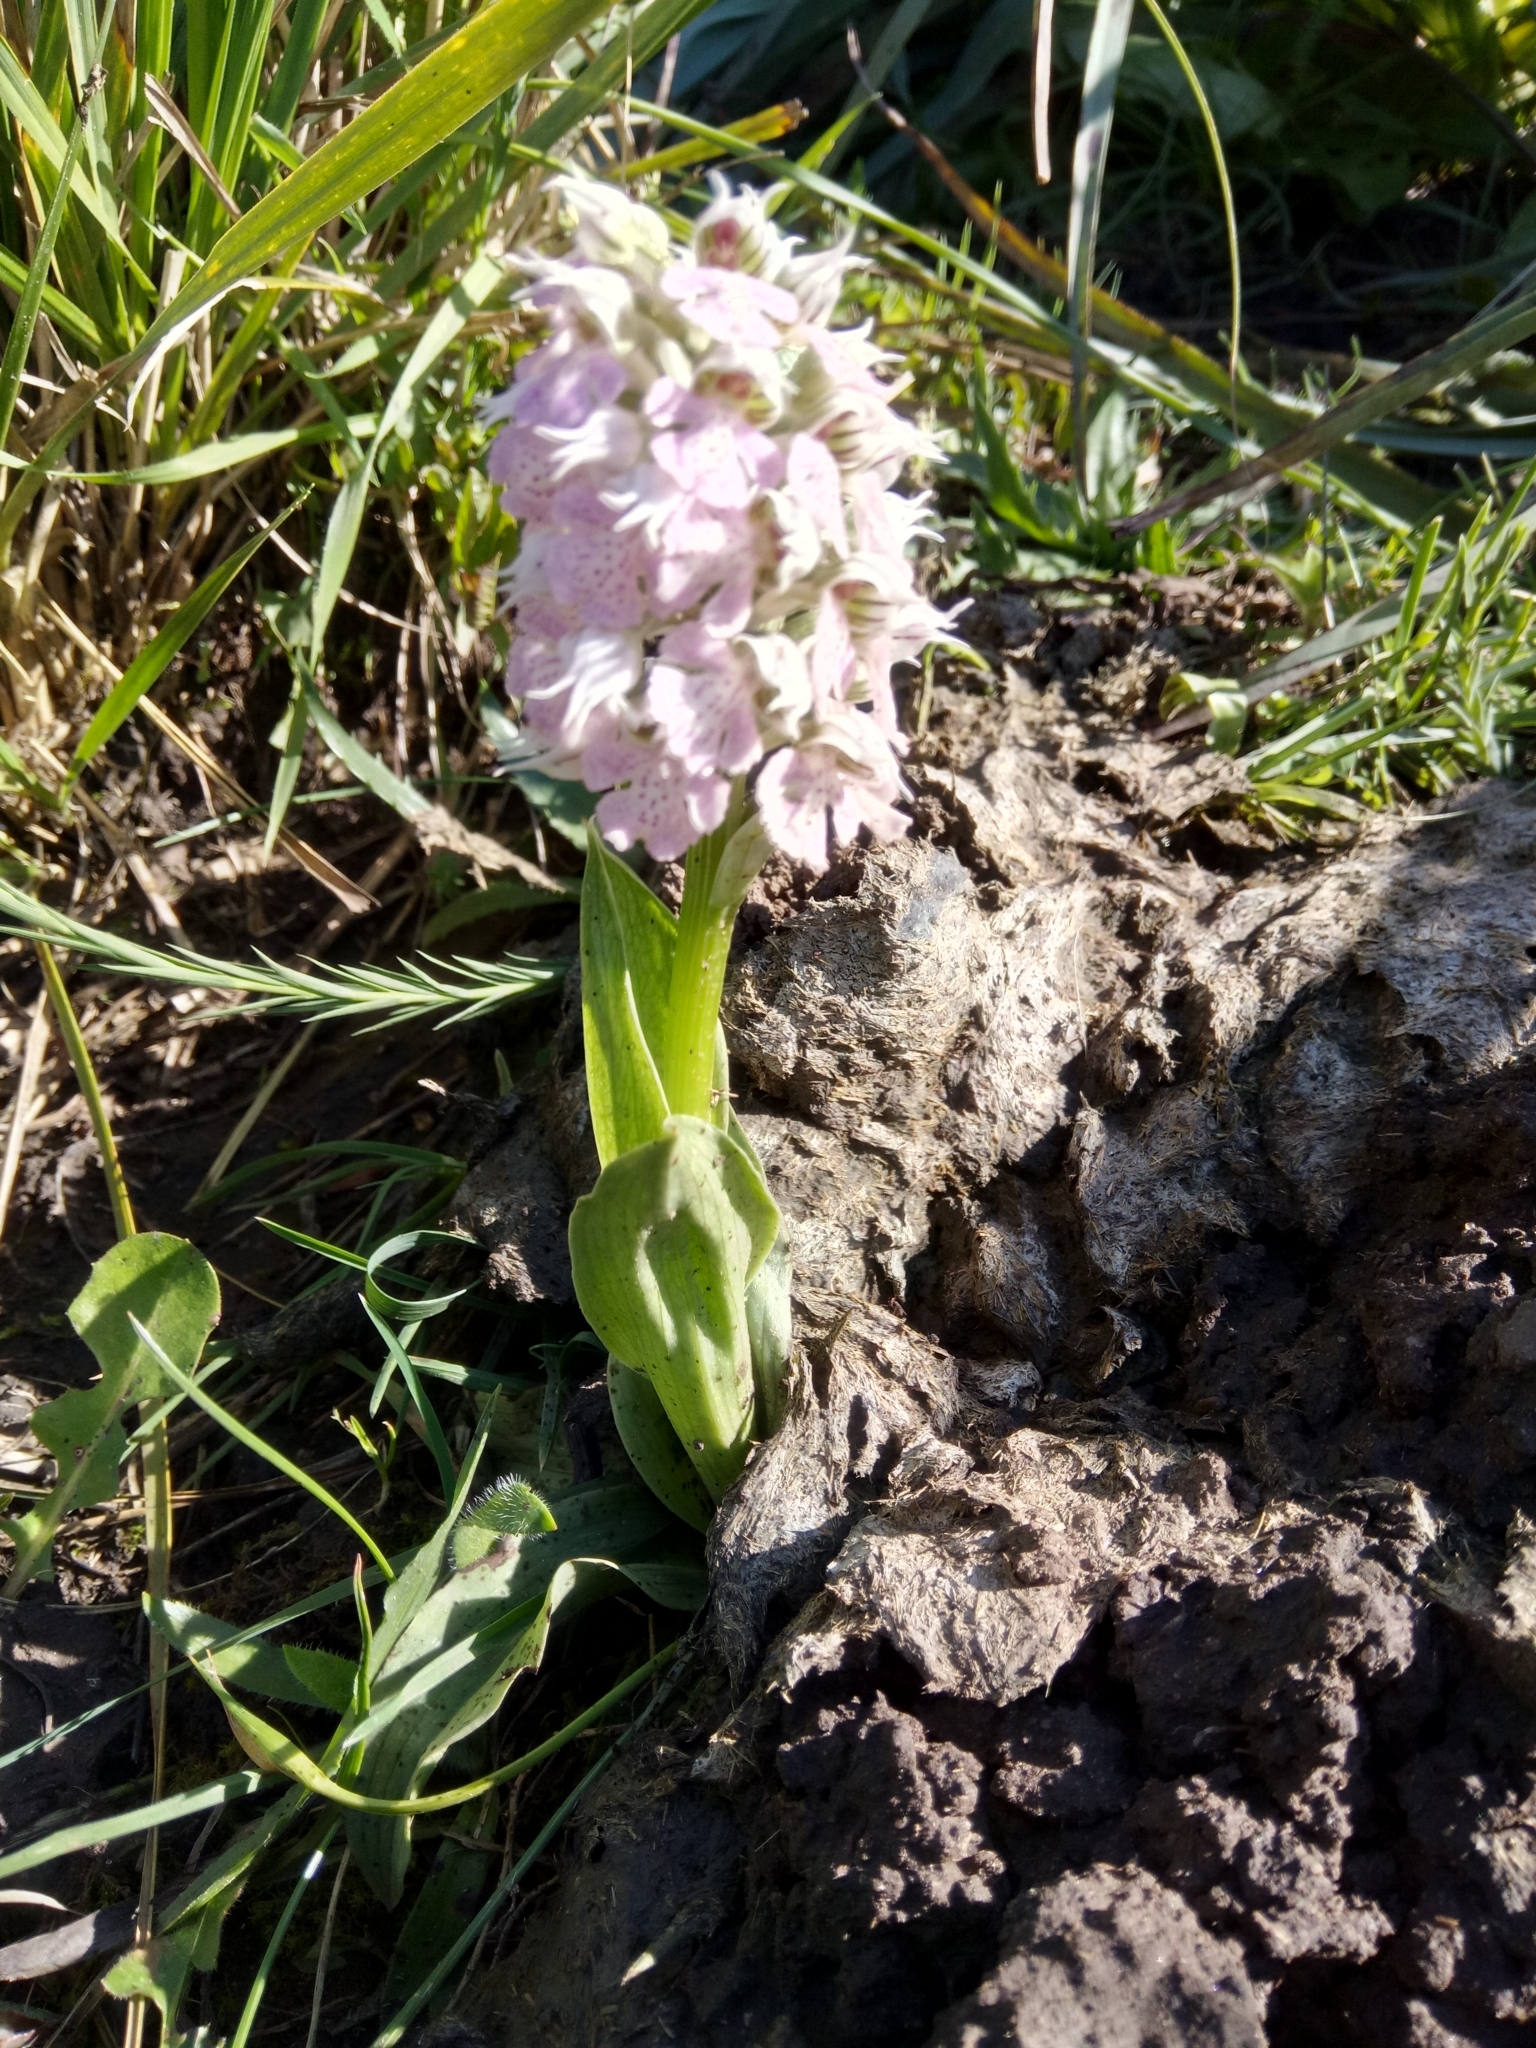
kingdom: Plantae
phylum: Tracheophyta
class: Liliopsida
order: Asparagales
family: Orchidaceae
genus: Neotinea
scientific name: Neotinea lactea
